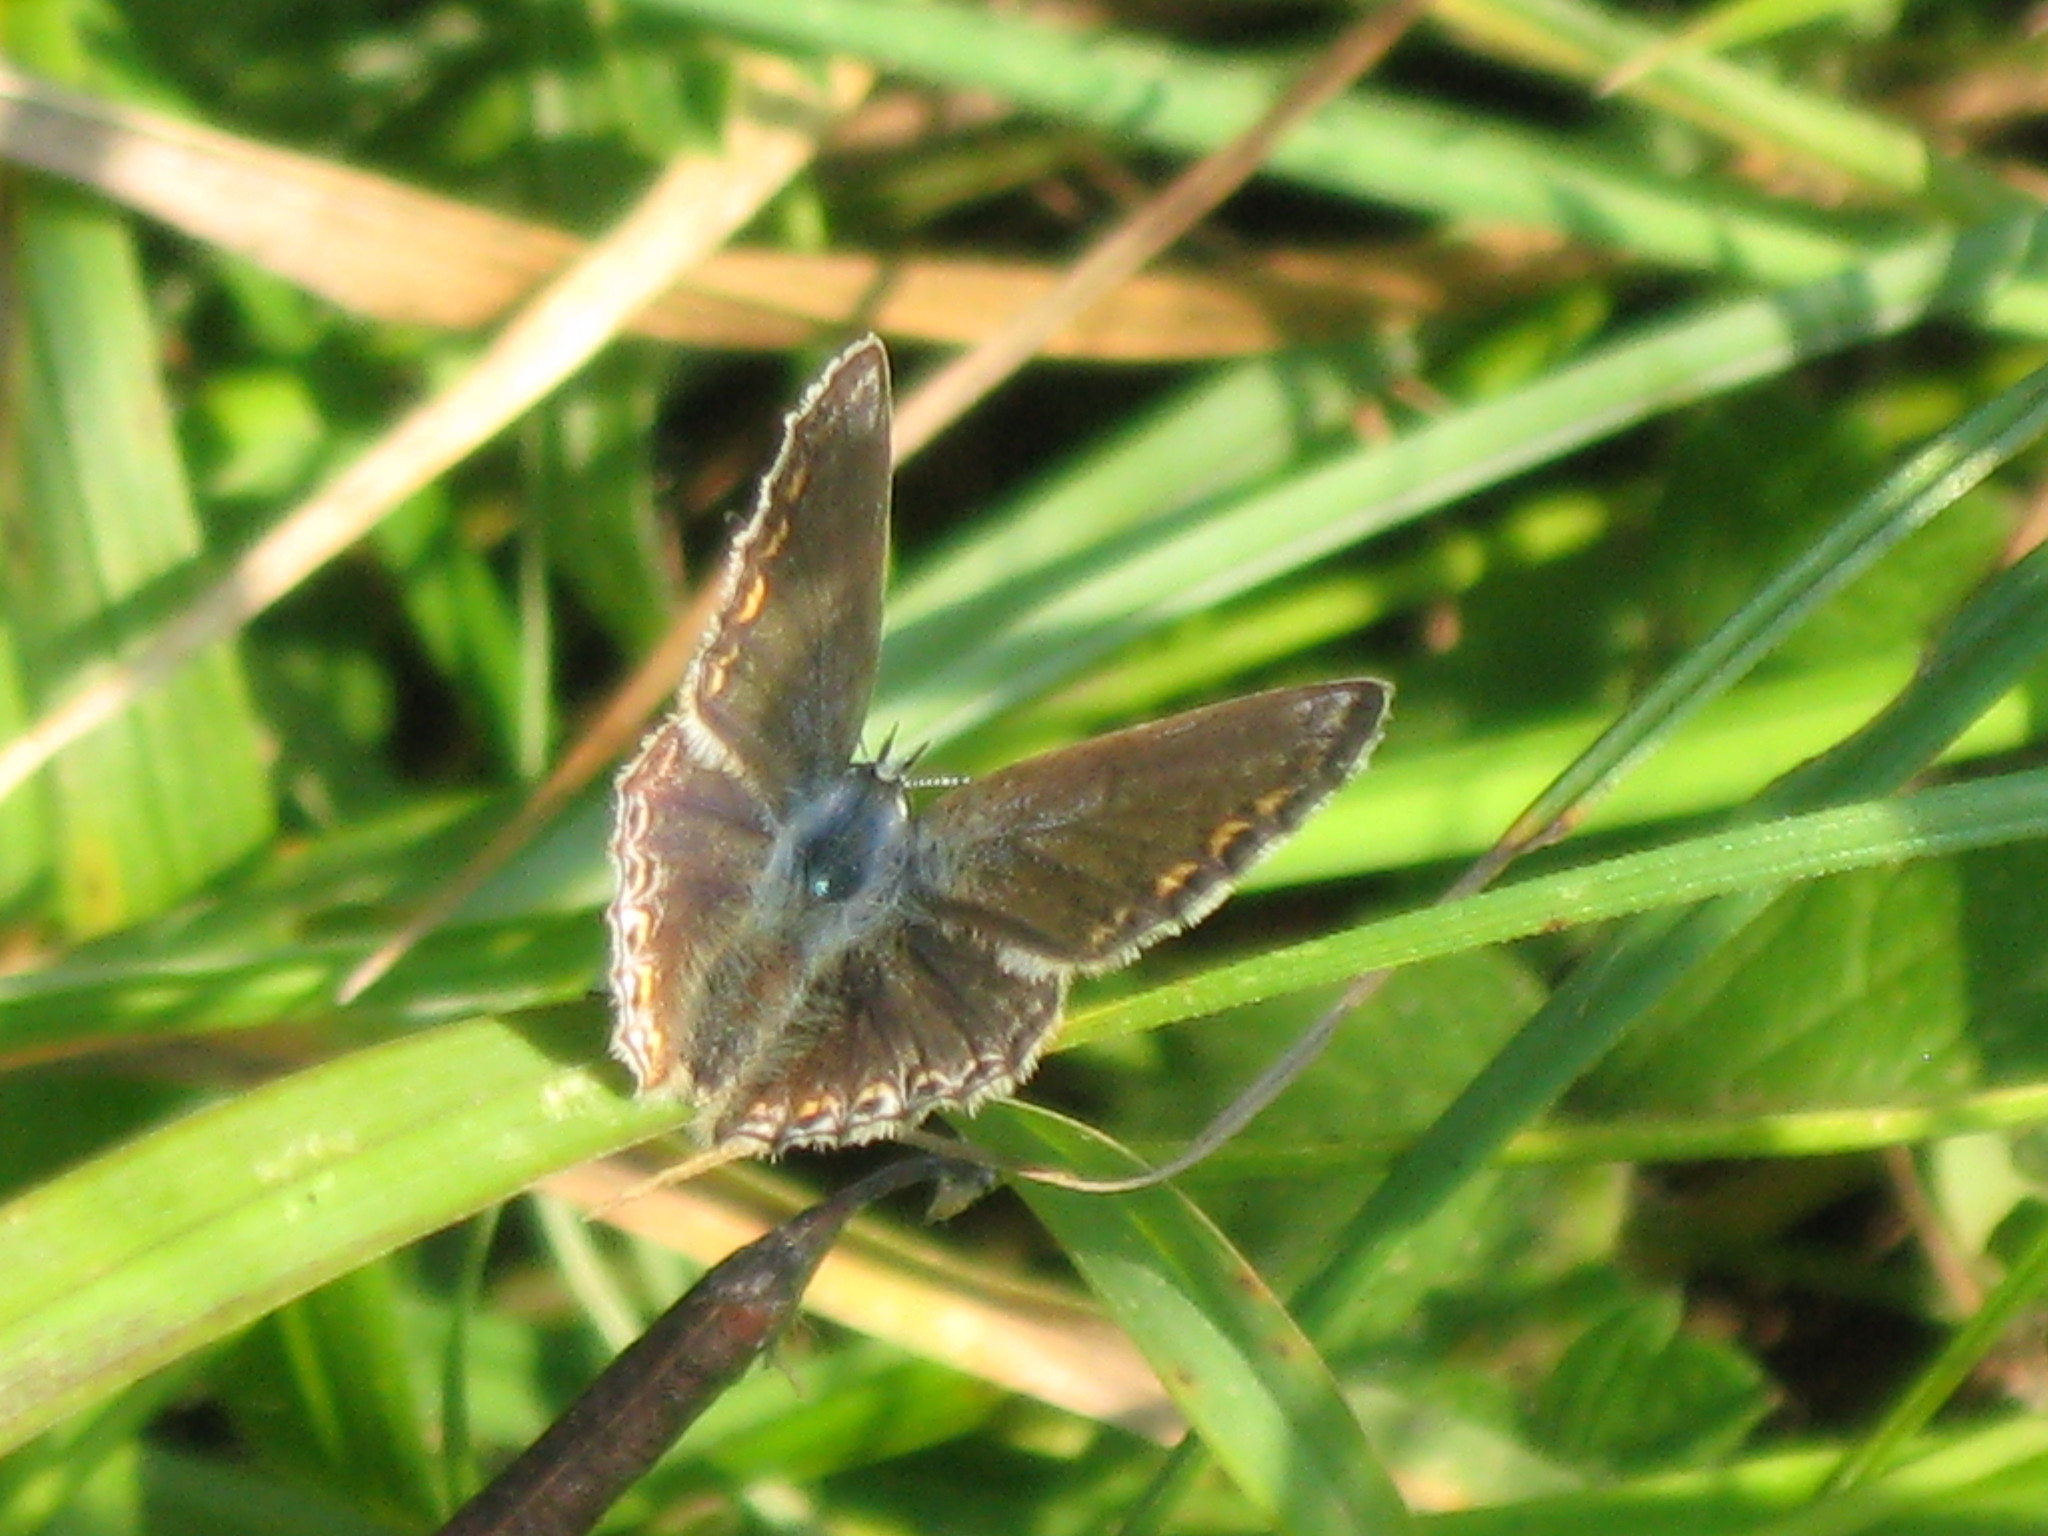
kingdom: Animalia
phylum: Arthropoda
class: Insecta
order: Lepidoptera
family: Lycaenidae
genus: Polyommatus
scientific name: Polyommatus icarus
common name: Common blue
